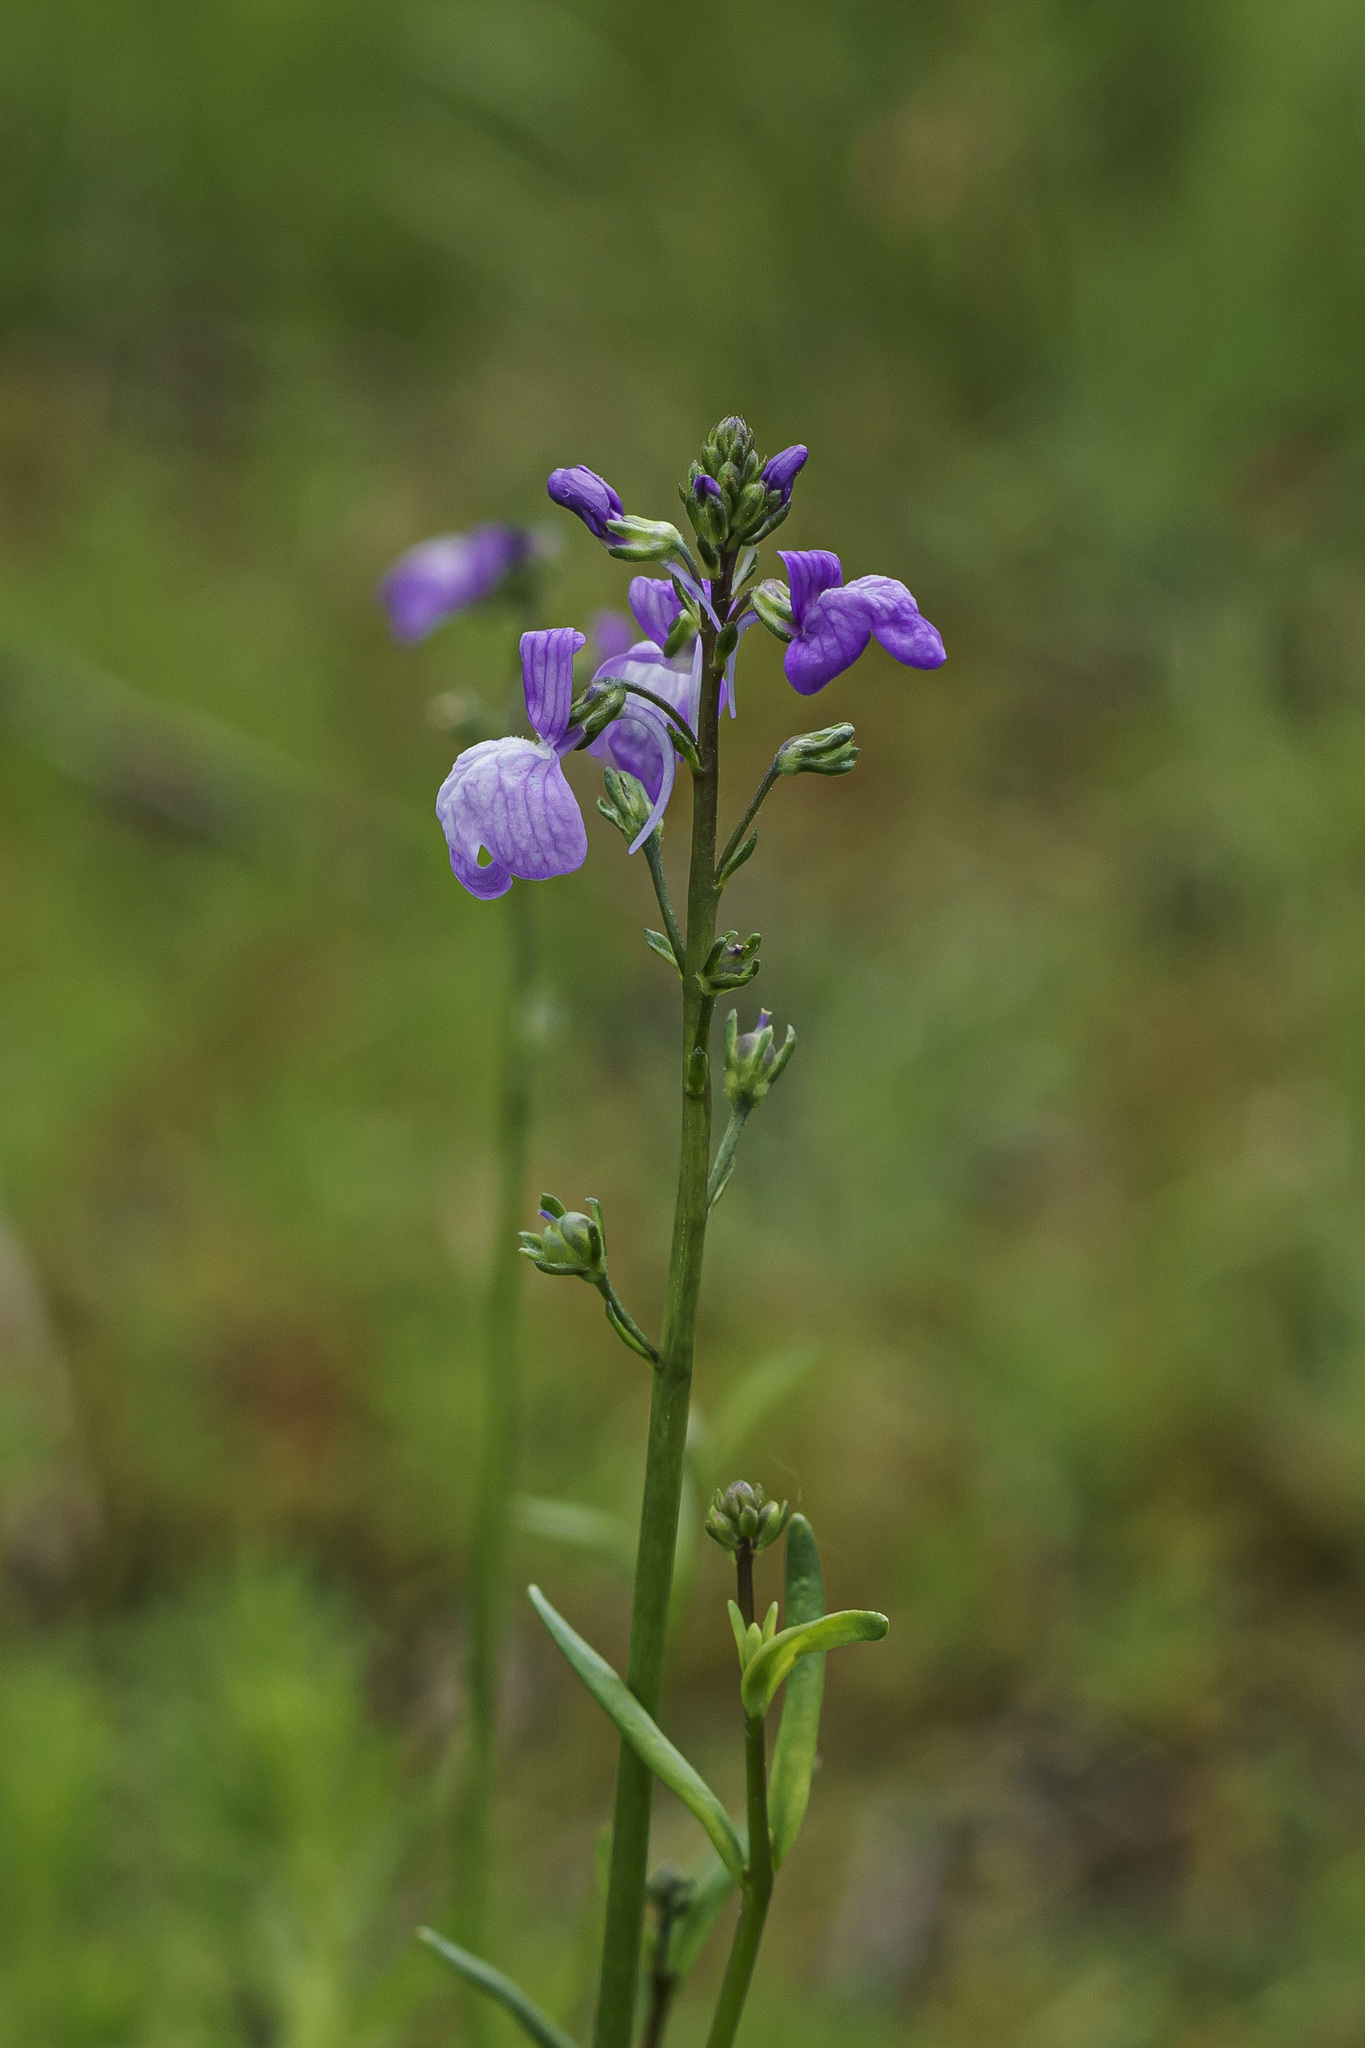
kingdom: Plantae
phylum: Tracheophyta
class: Magnoliopsida
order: Lamiales
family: Plantaginaceae
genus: Nuttallanthus
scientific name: Nuttallanthus texanus
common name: Texas toadflax
